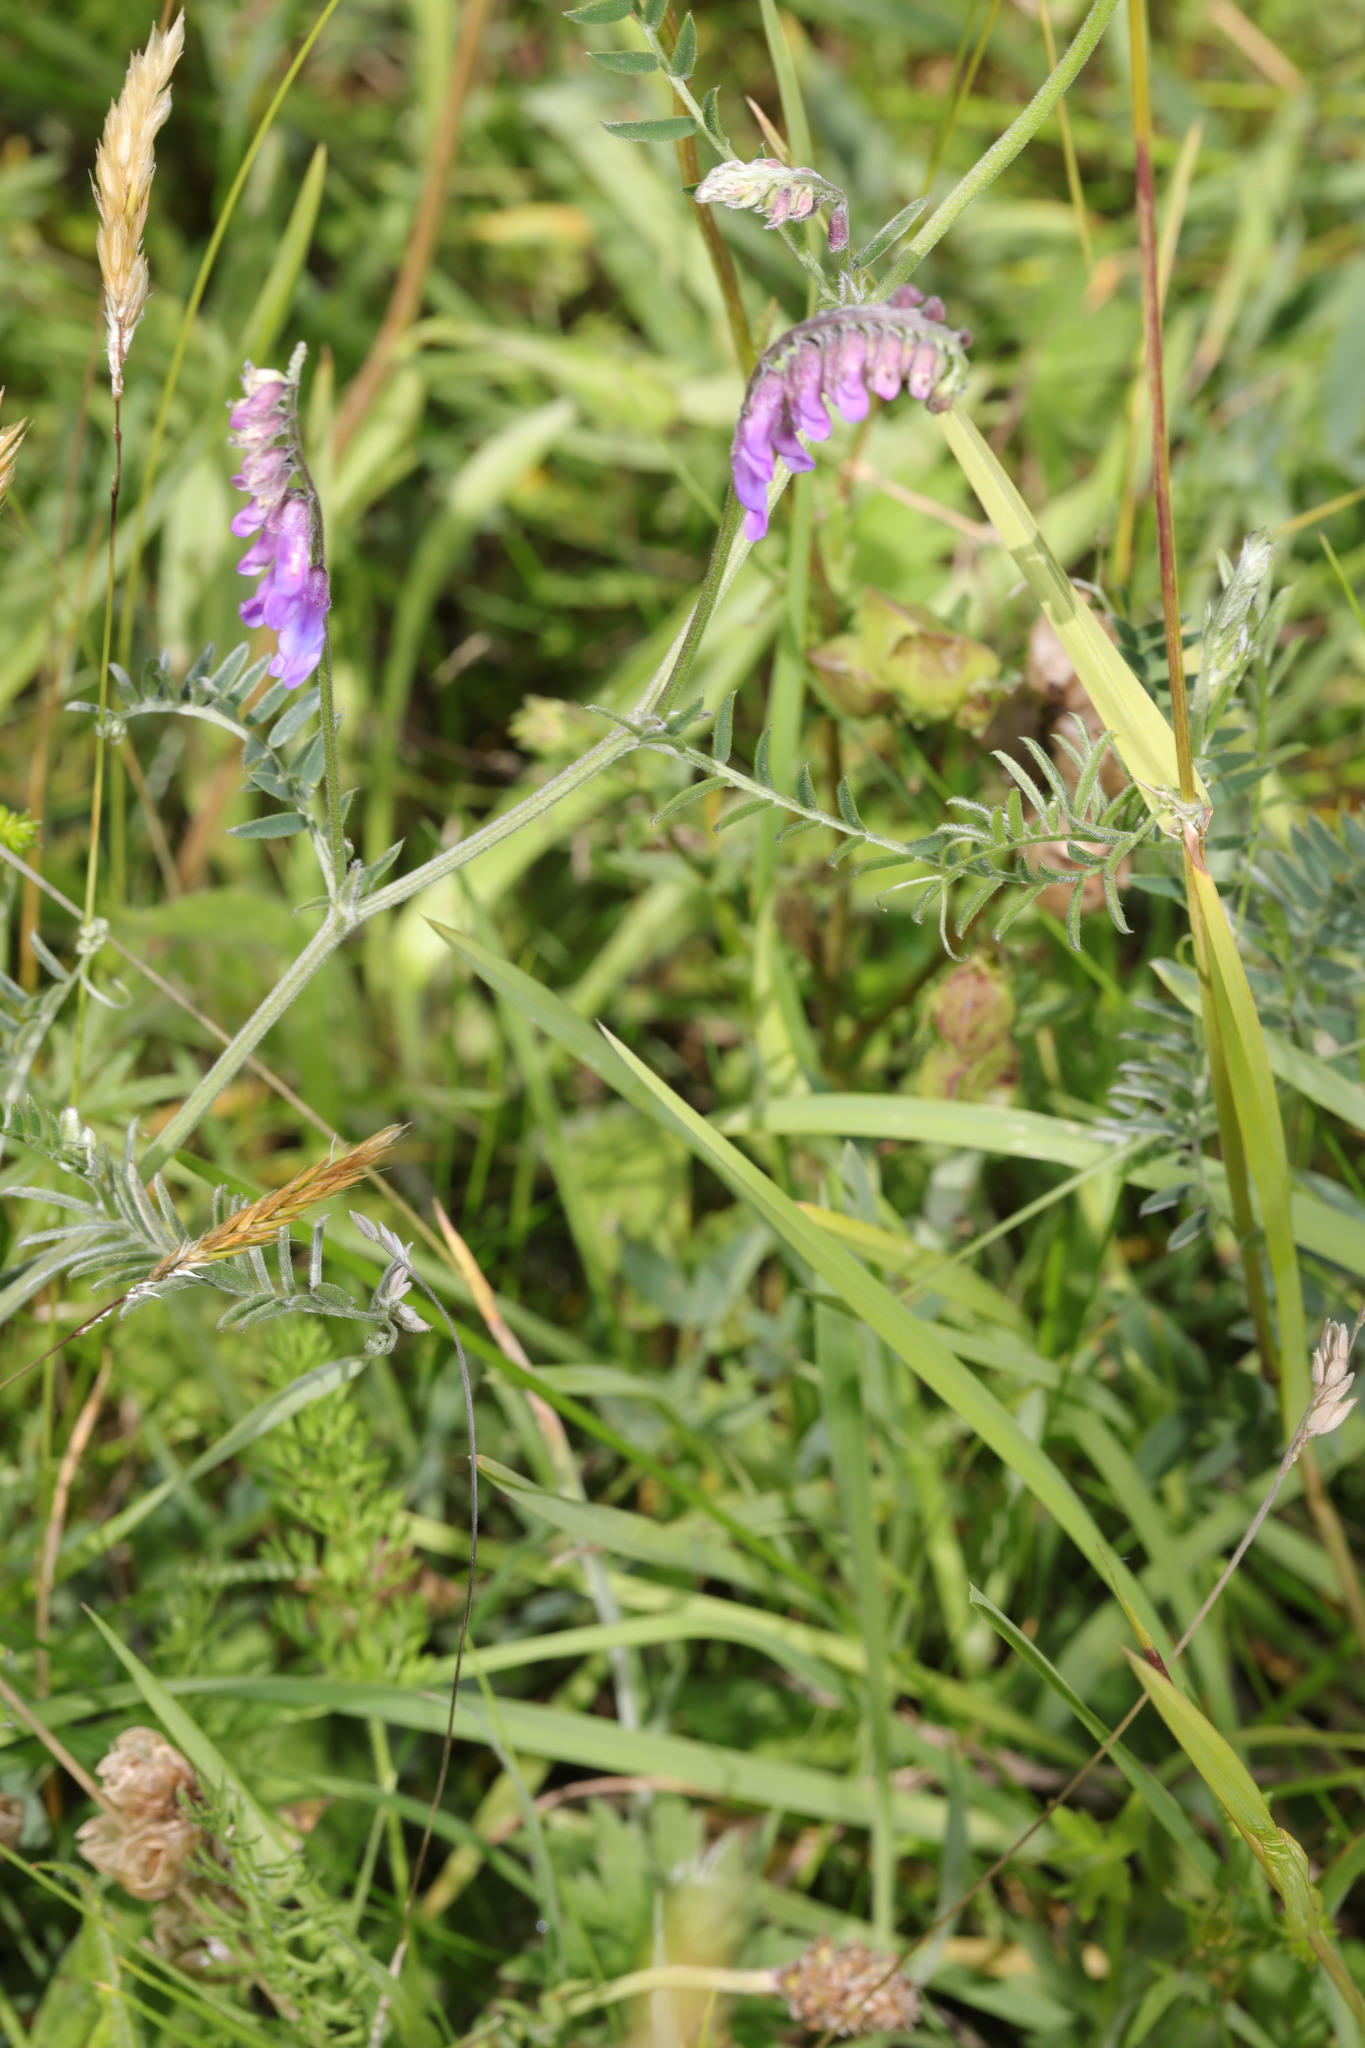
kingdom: Plantae
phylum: Tracheophyta
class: Magnoliopsida
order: Fabales
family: Fabaceae
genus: Vicia
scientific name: Vicia cracca
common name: Bird vetch
